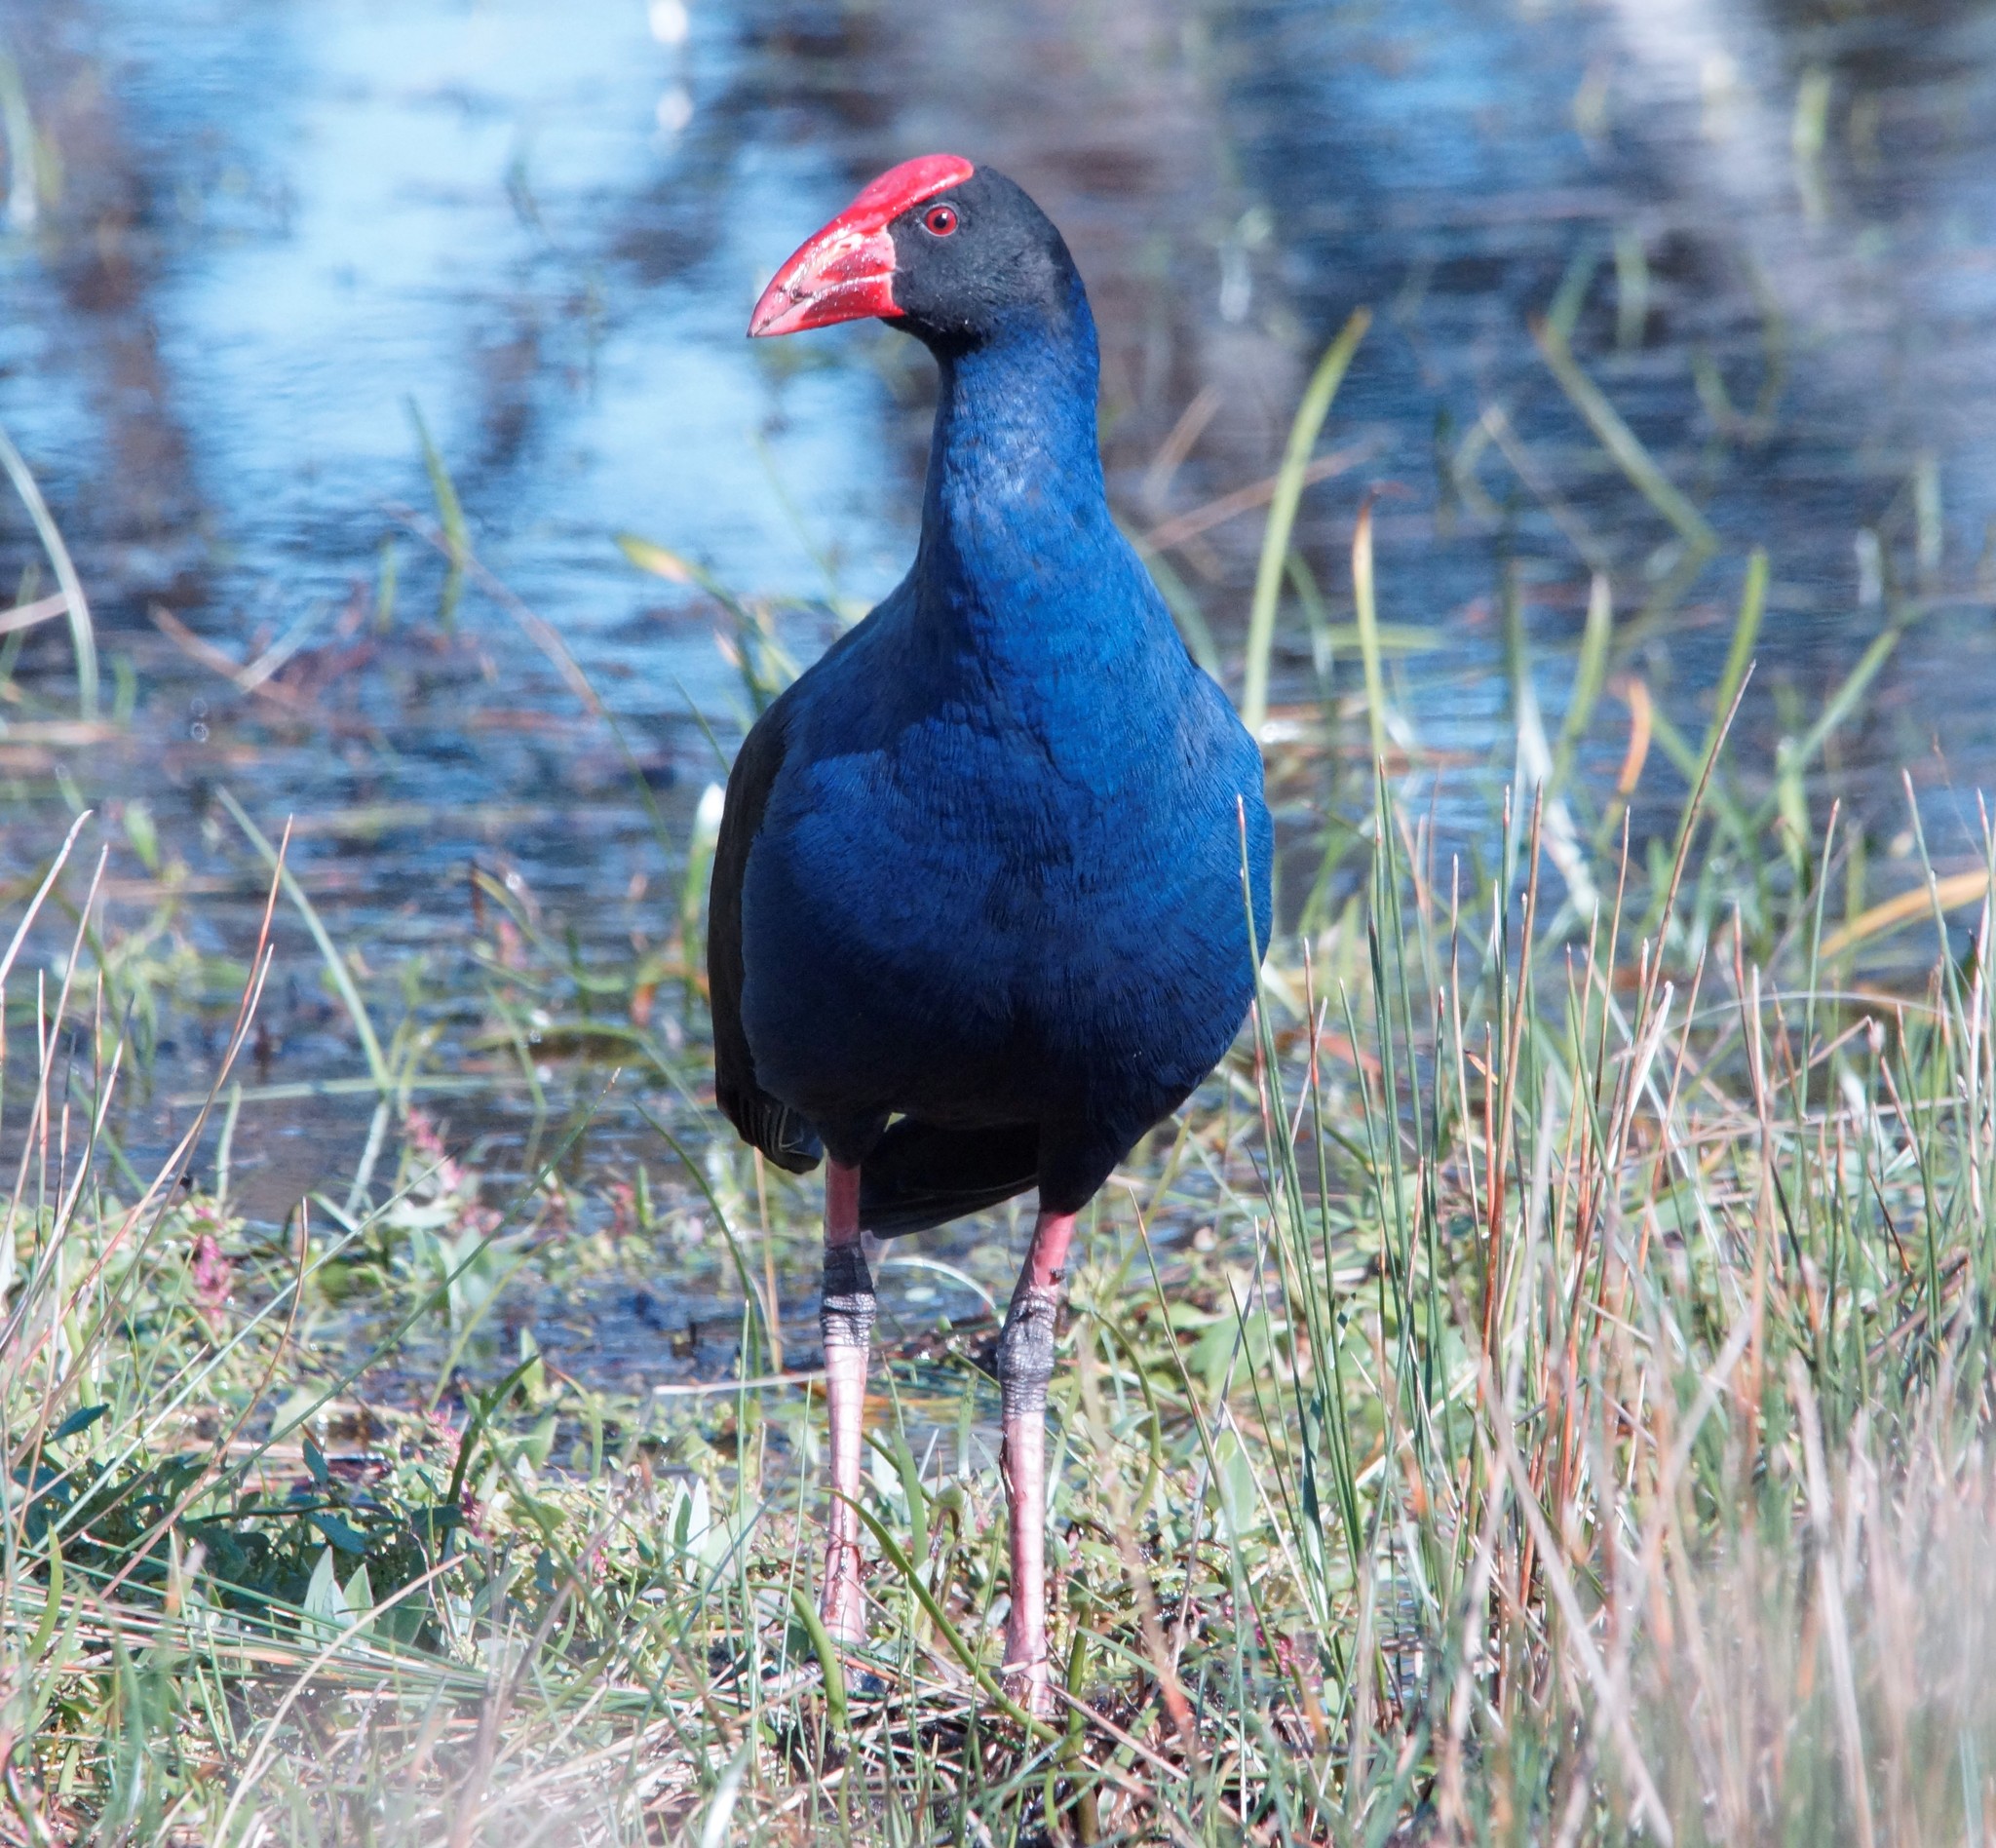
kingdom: Animalia
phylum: Chordata
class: Aves
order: Gruiformes
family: Rallidae
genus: Porphyrio
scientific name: Porphyrio melanotus
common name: Australasian swamphen
